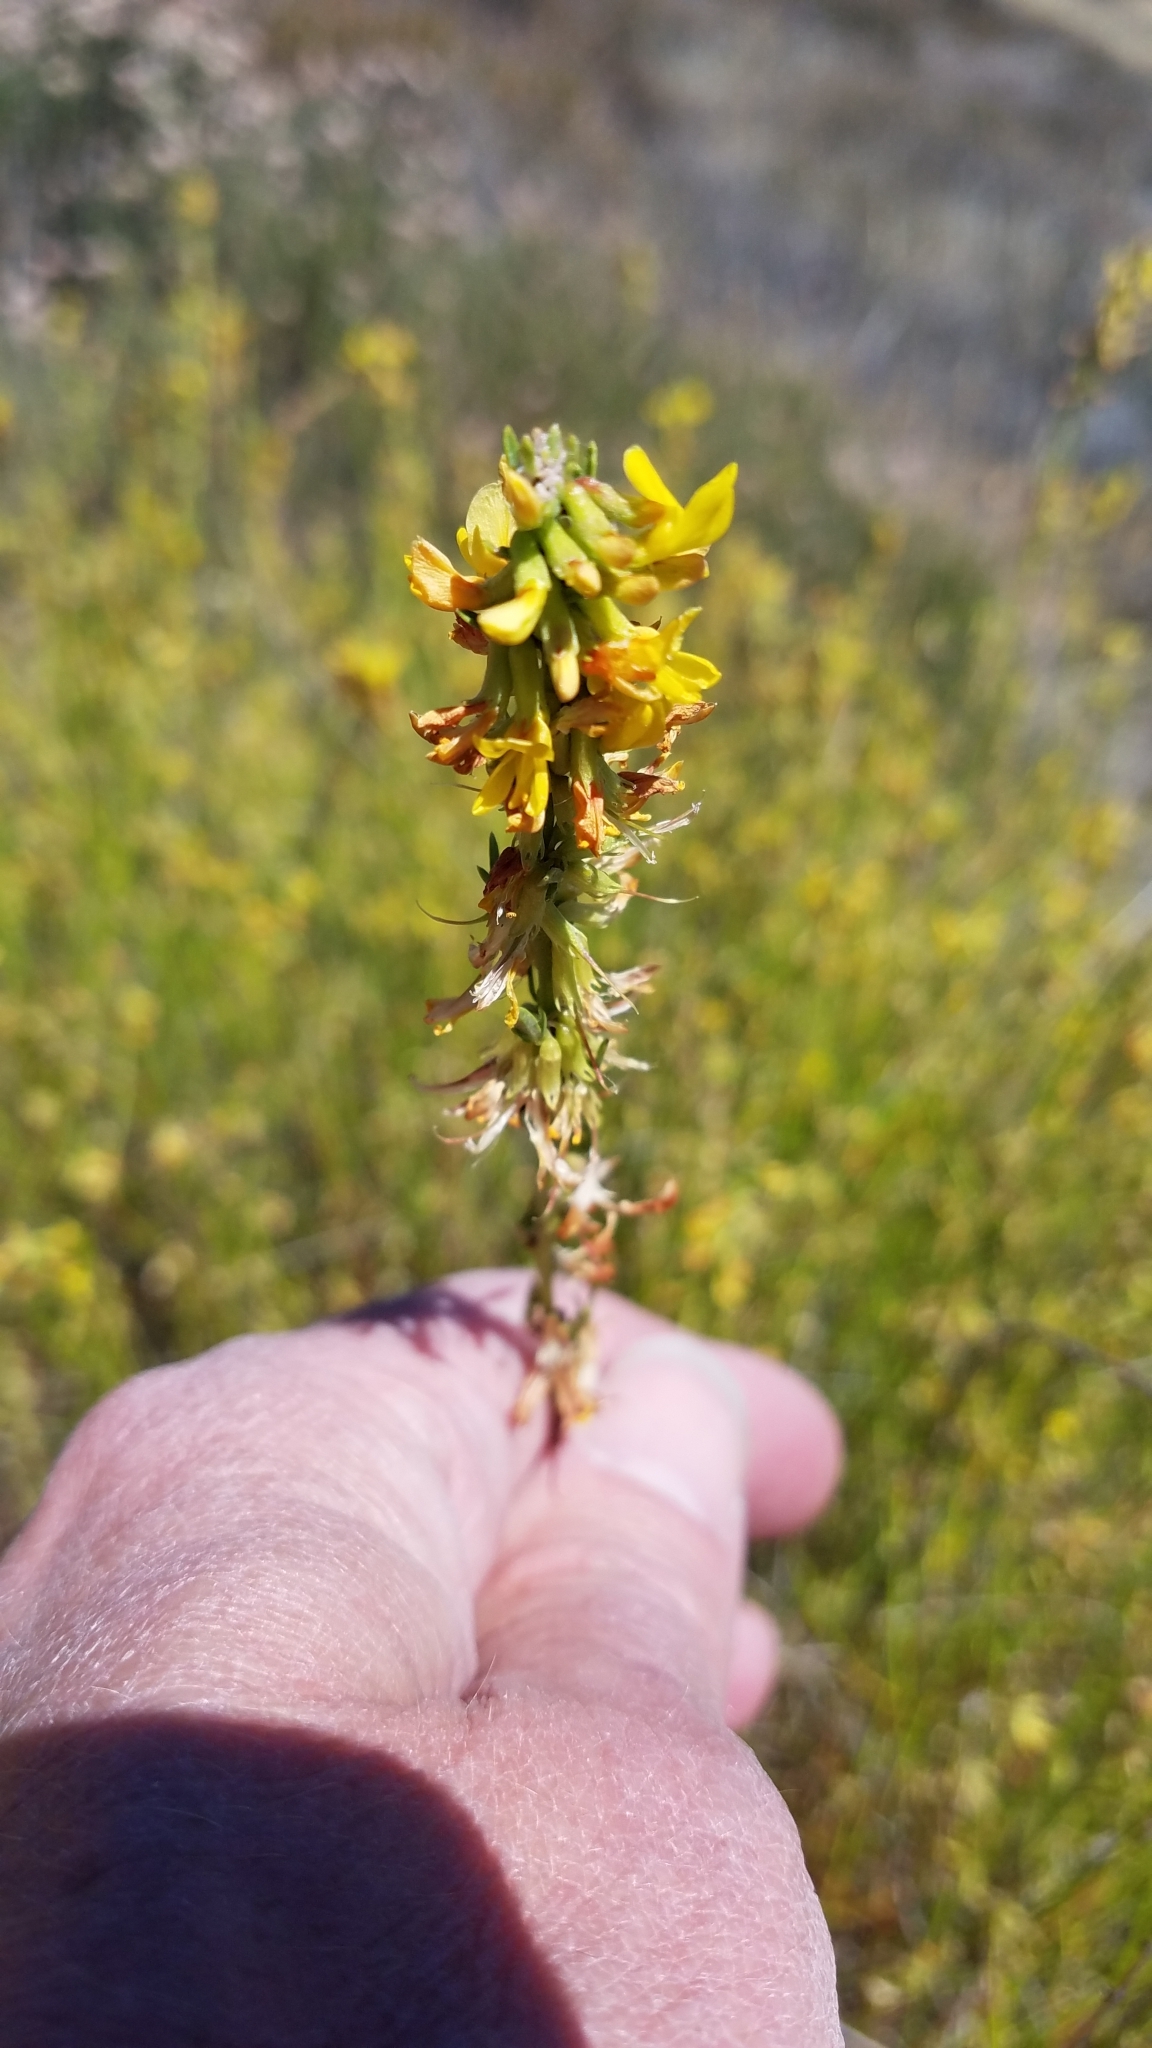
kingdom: Plantae
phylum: Tracheophyta
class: Magnoliopsida
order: Fabales
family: Fabaceae
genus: Acmispon
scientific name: Acmispon glaber
